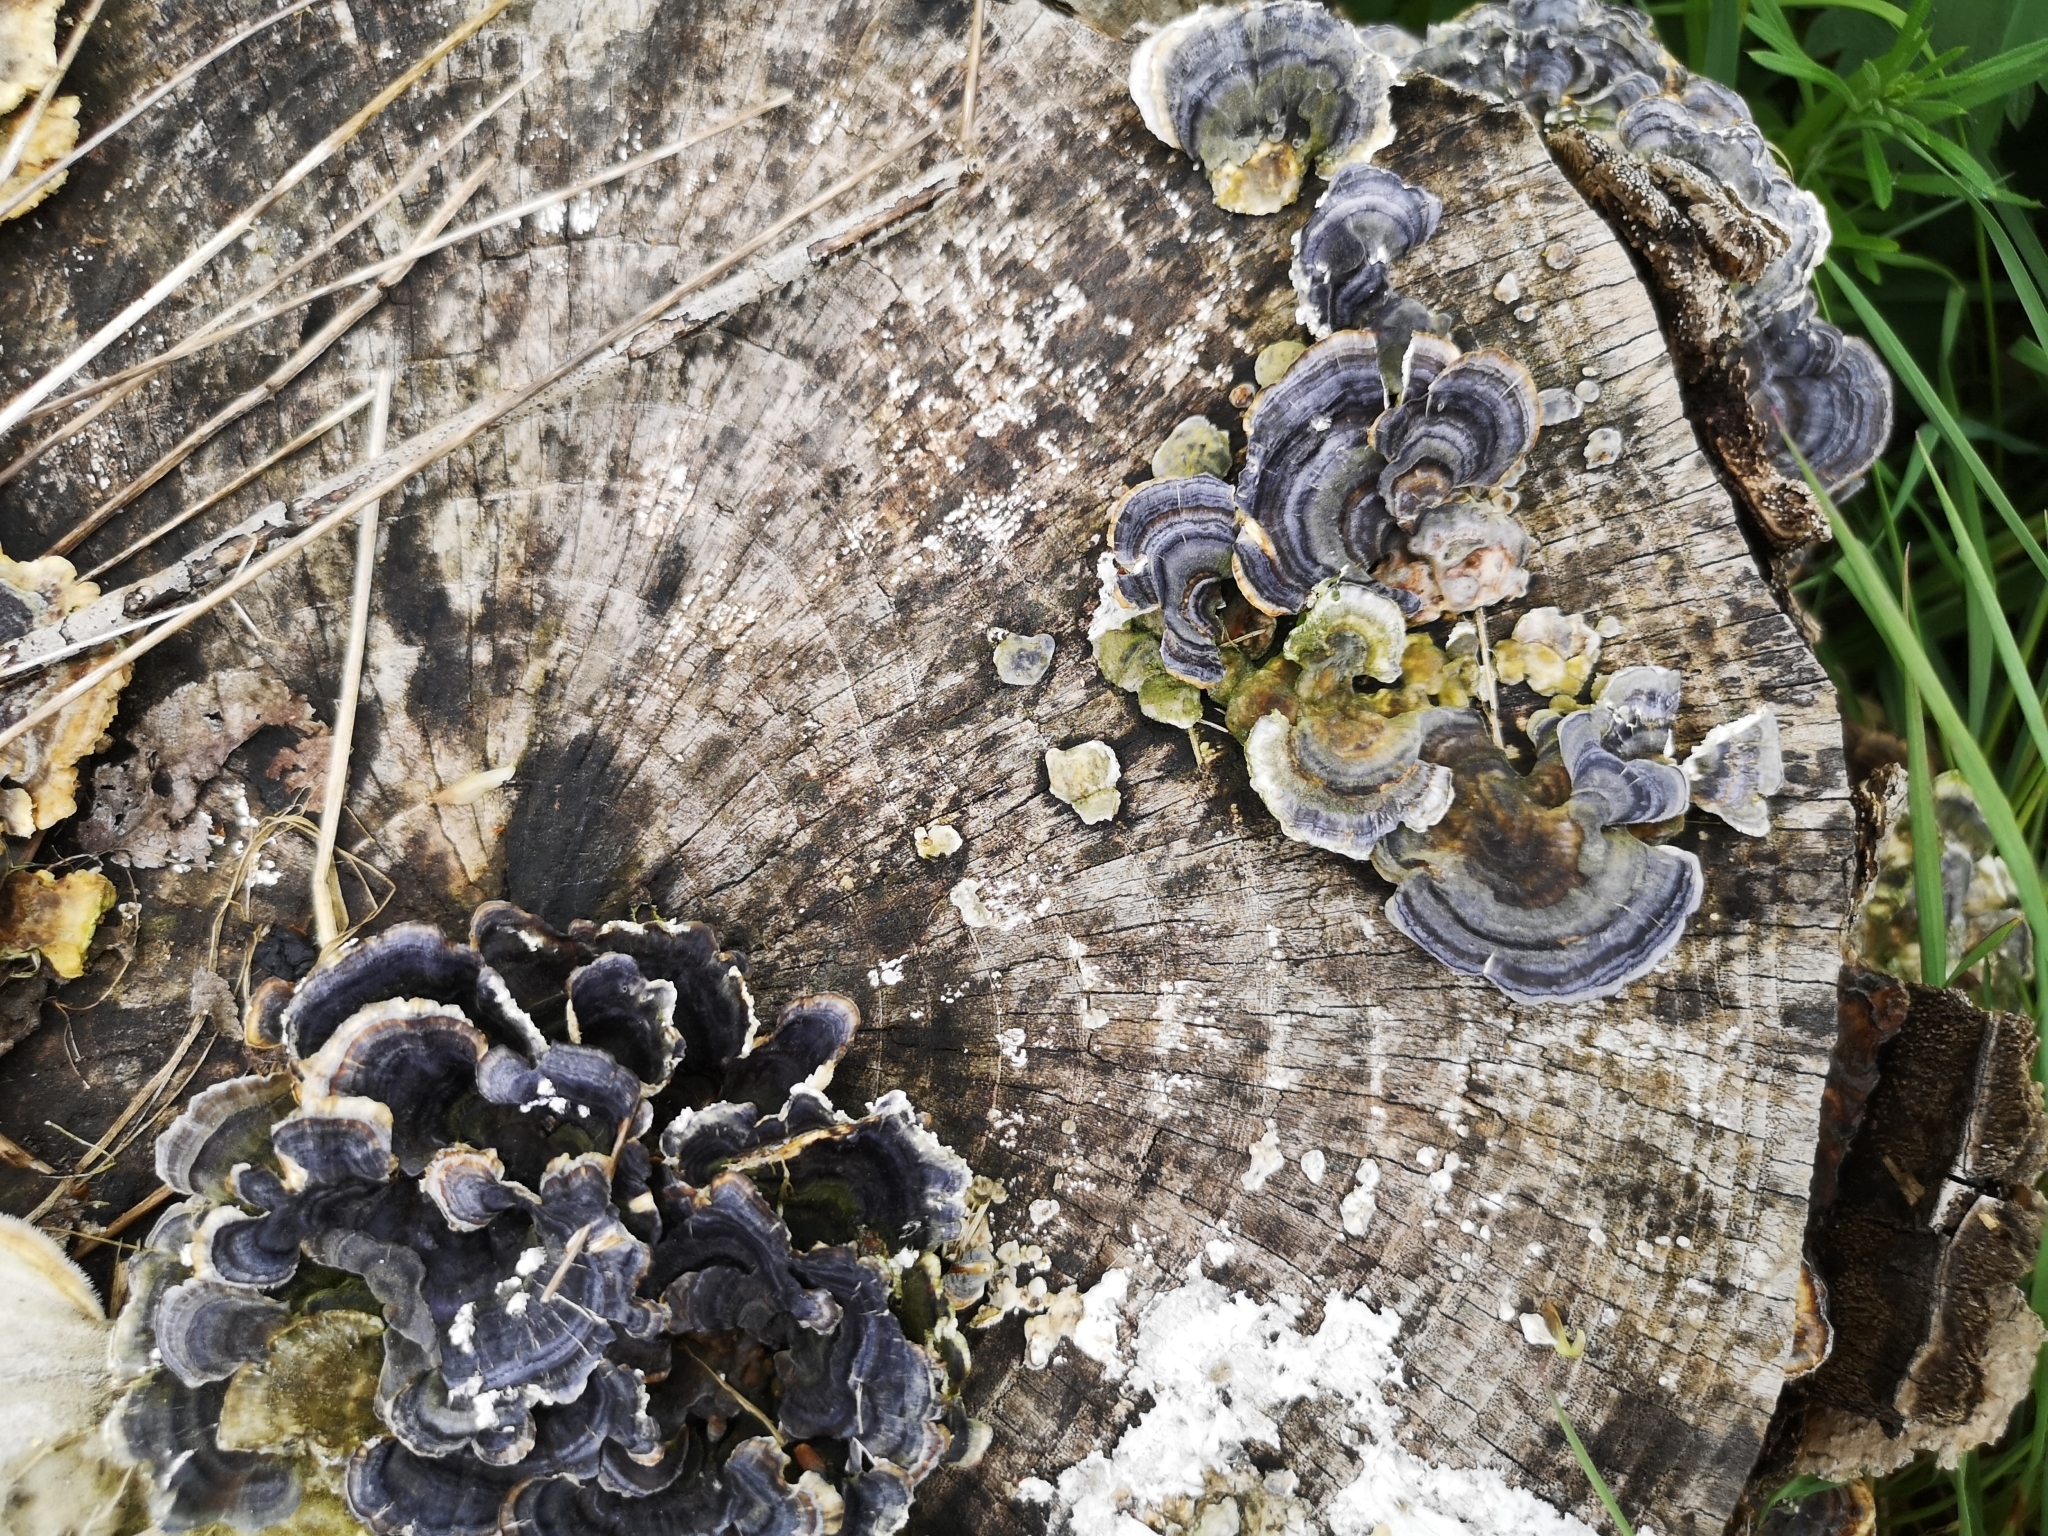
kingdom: Fungi
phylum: Basidiomycota
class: Agaricomycetes
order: Polyporales
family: Polyporaceae
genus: Trametes
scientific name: Trametes versicolor
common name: Turkeytail
